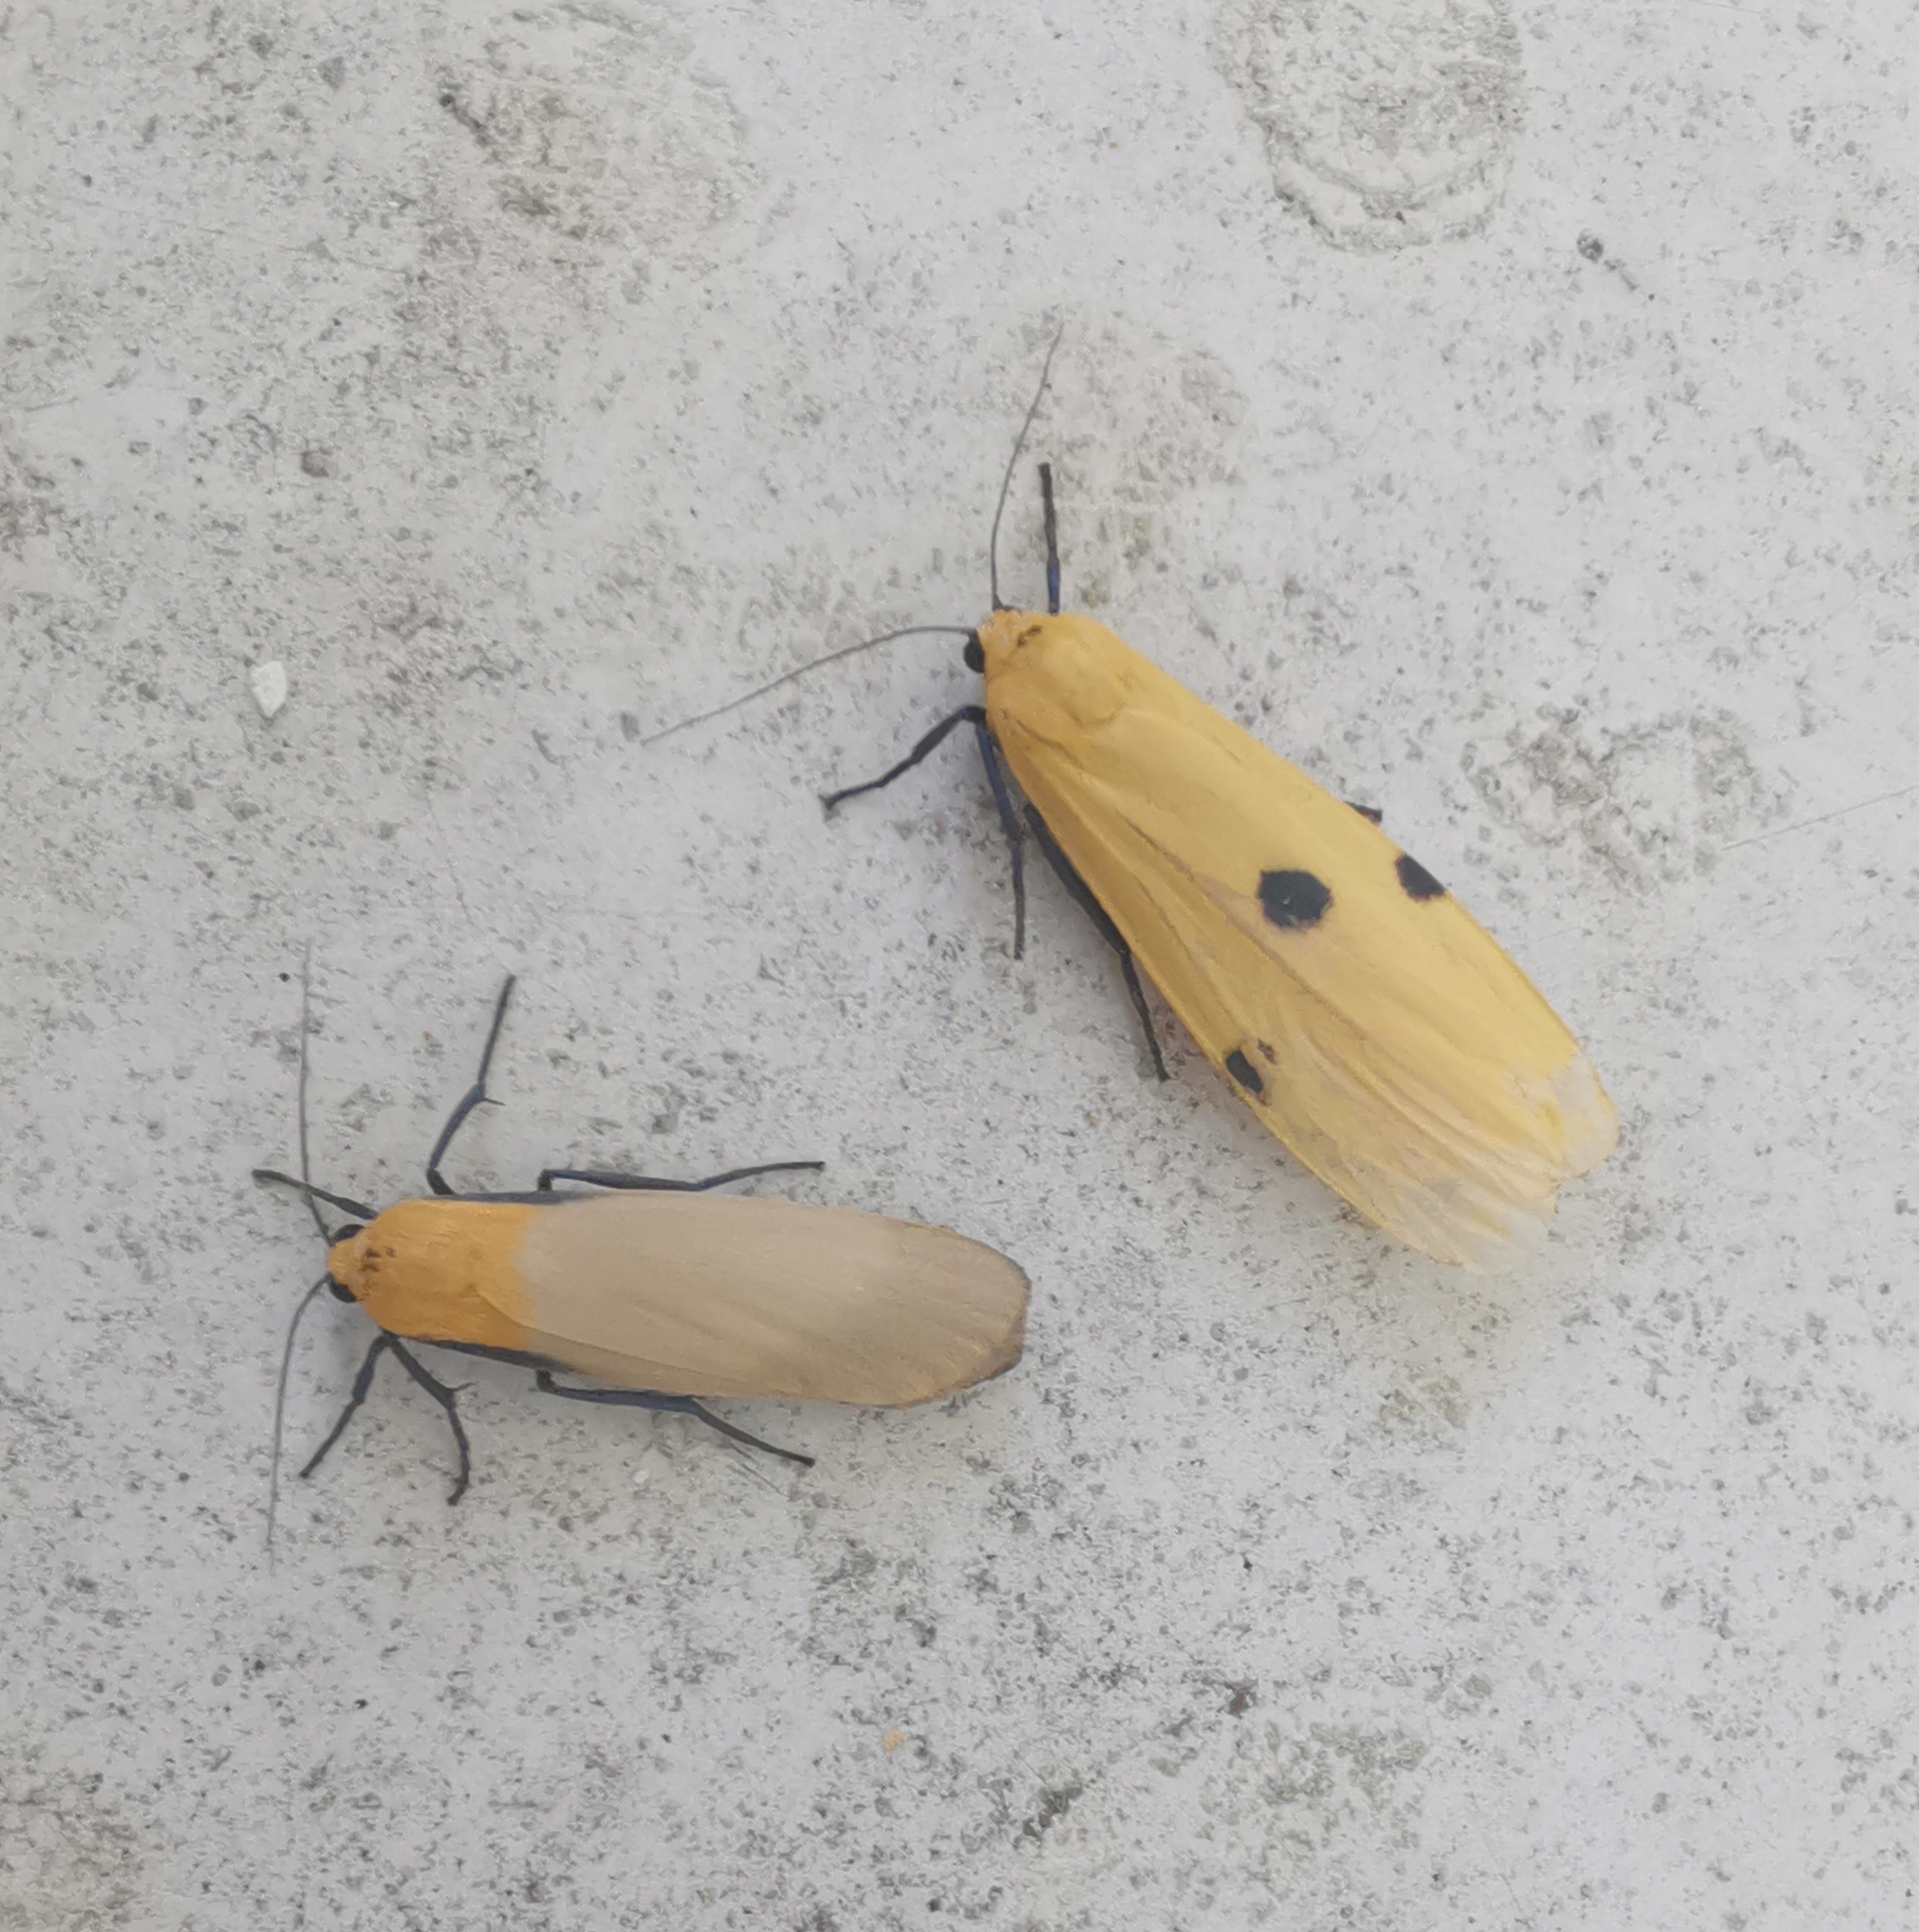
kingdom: Animalia
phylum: Arthropoda
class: Insecta
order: Lepidoptera
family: Erebidae
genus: Lithosia
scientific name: Lithosia quadra
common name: Four-spotted footman
